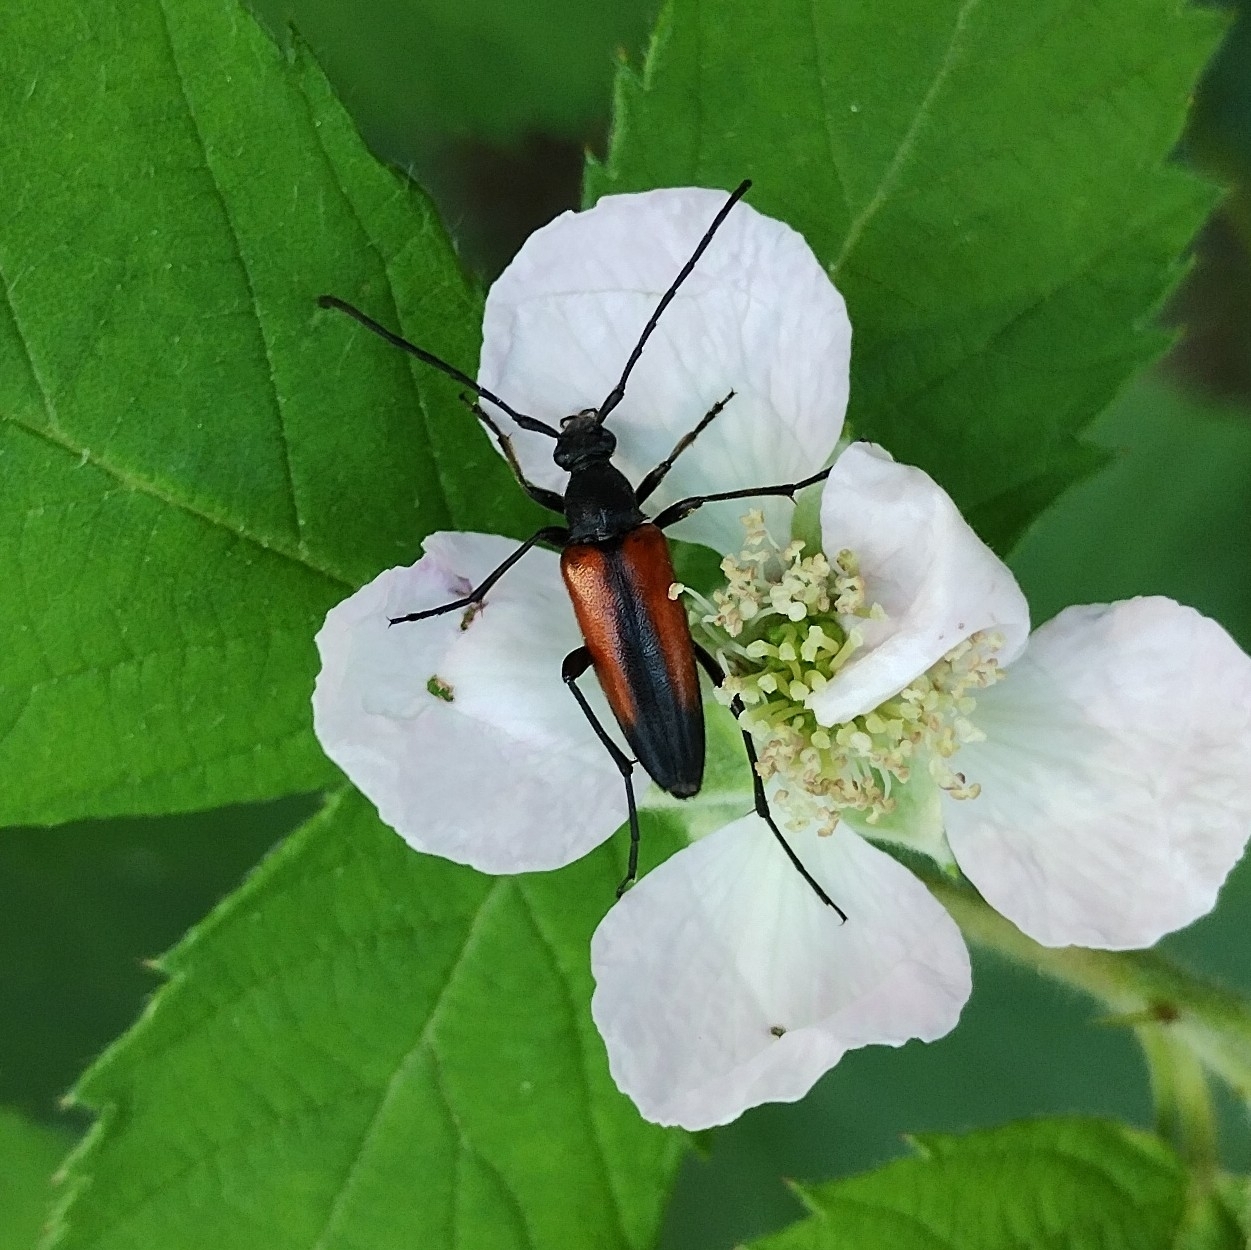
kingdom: Animalia
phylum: Arthropoda
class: Insecta
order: Coleoptera
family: Cerambycidae
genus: Stenurella
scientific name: Stenurella melanura
